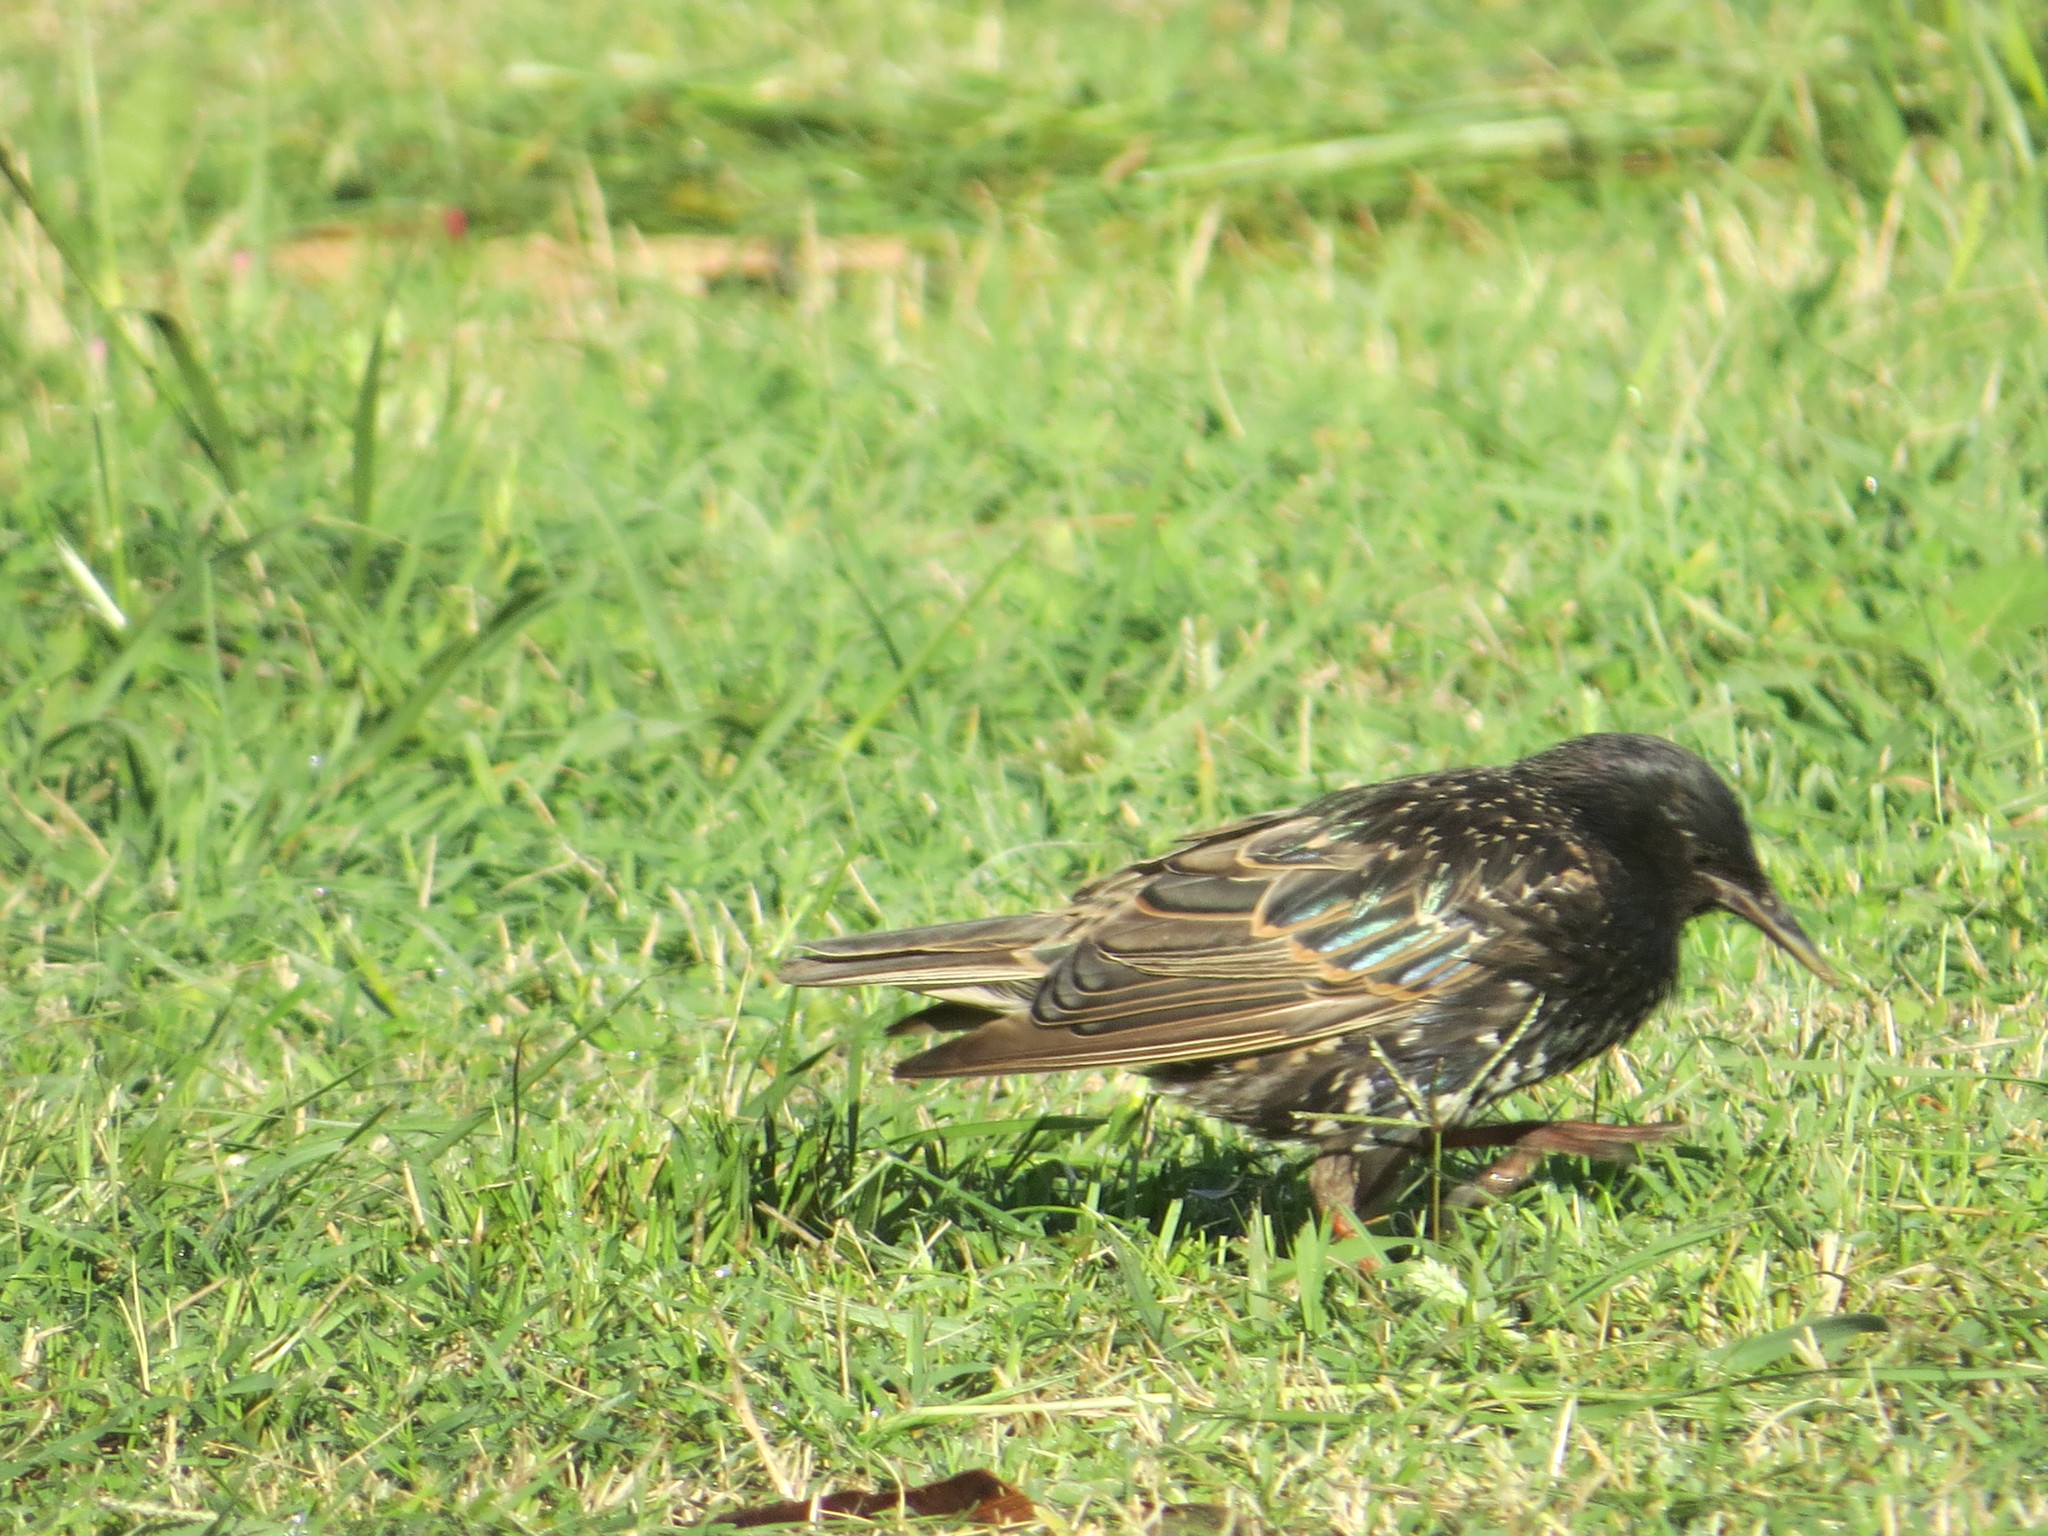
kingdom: Animalia
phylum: Chordata
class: Aves
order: Passeriformes
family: Sturnidae
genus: Sturnus
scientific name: Sturnus vulgaris
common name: Common starling
